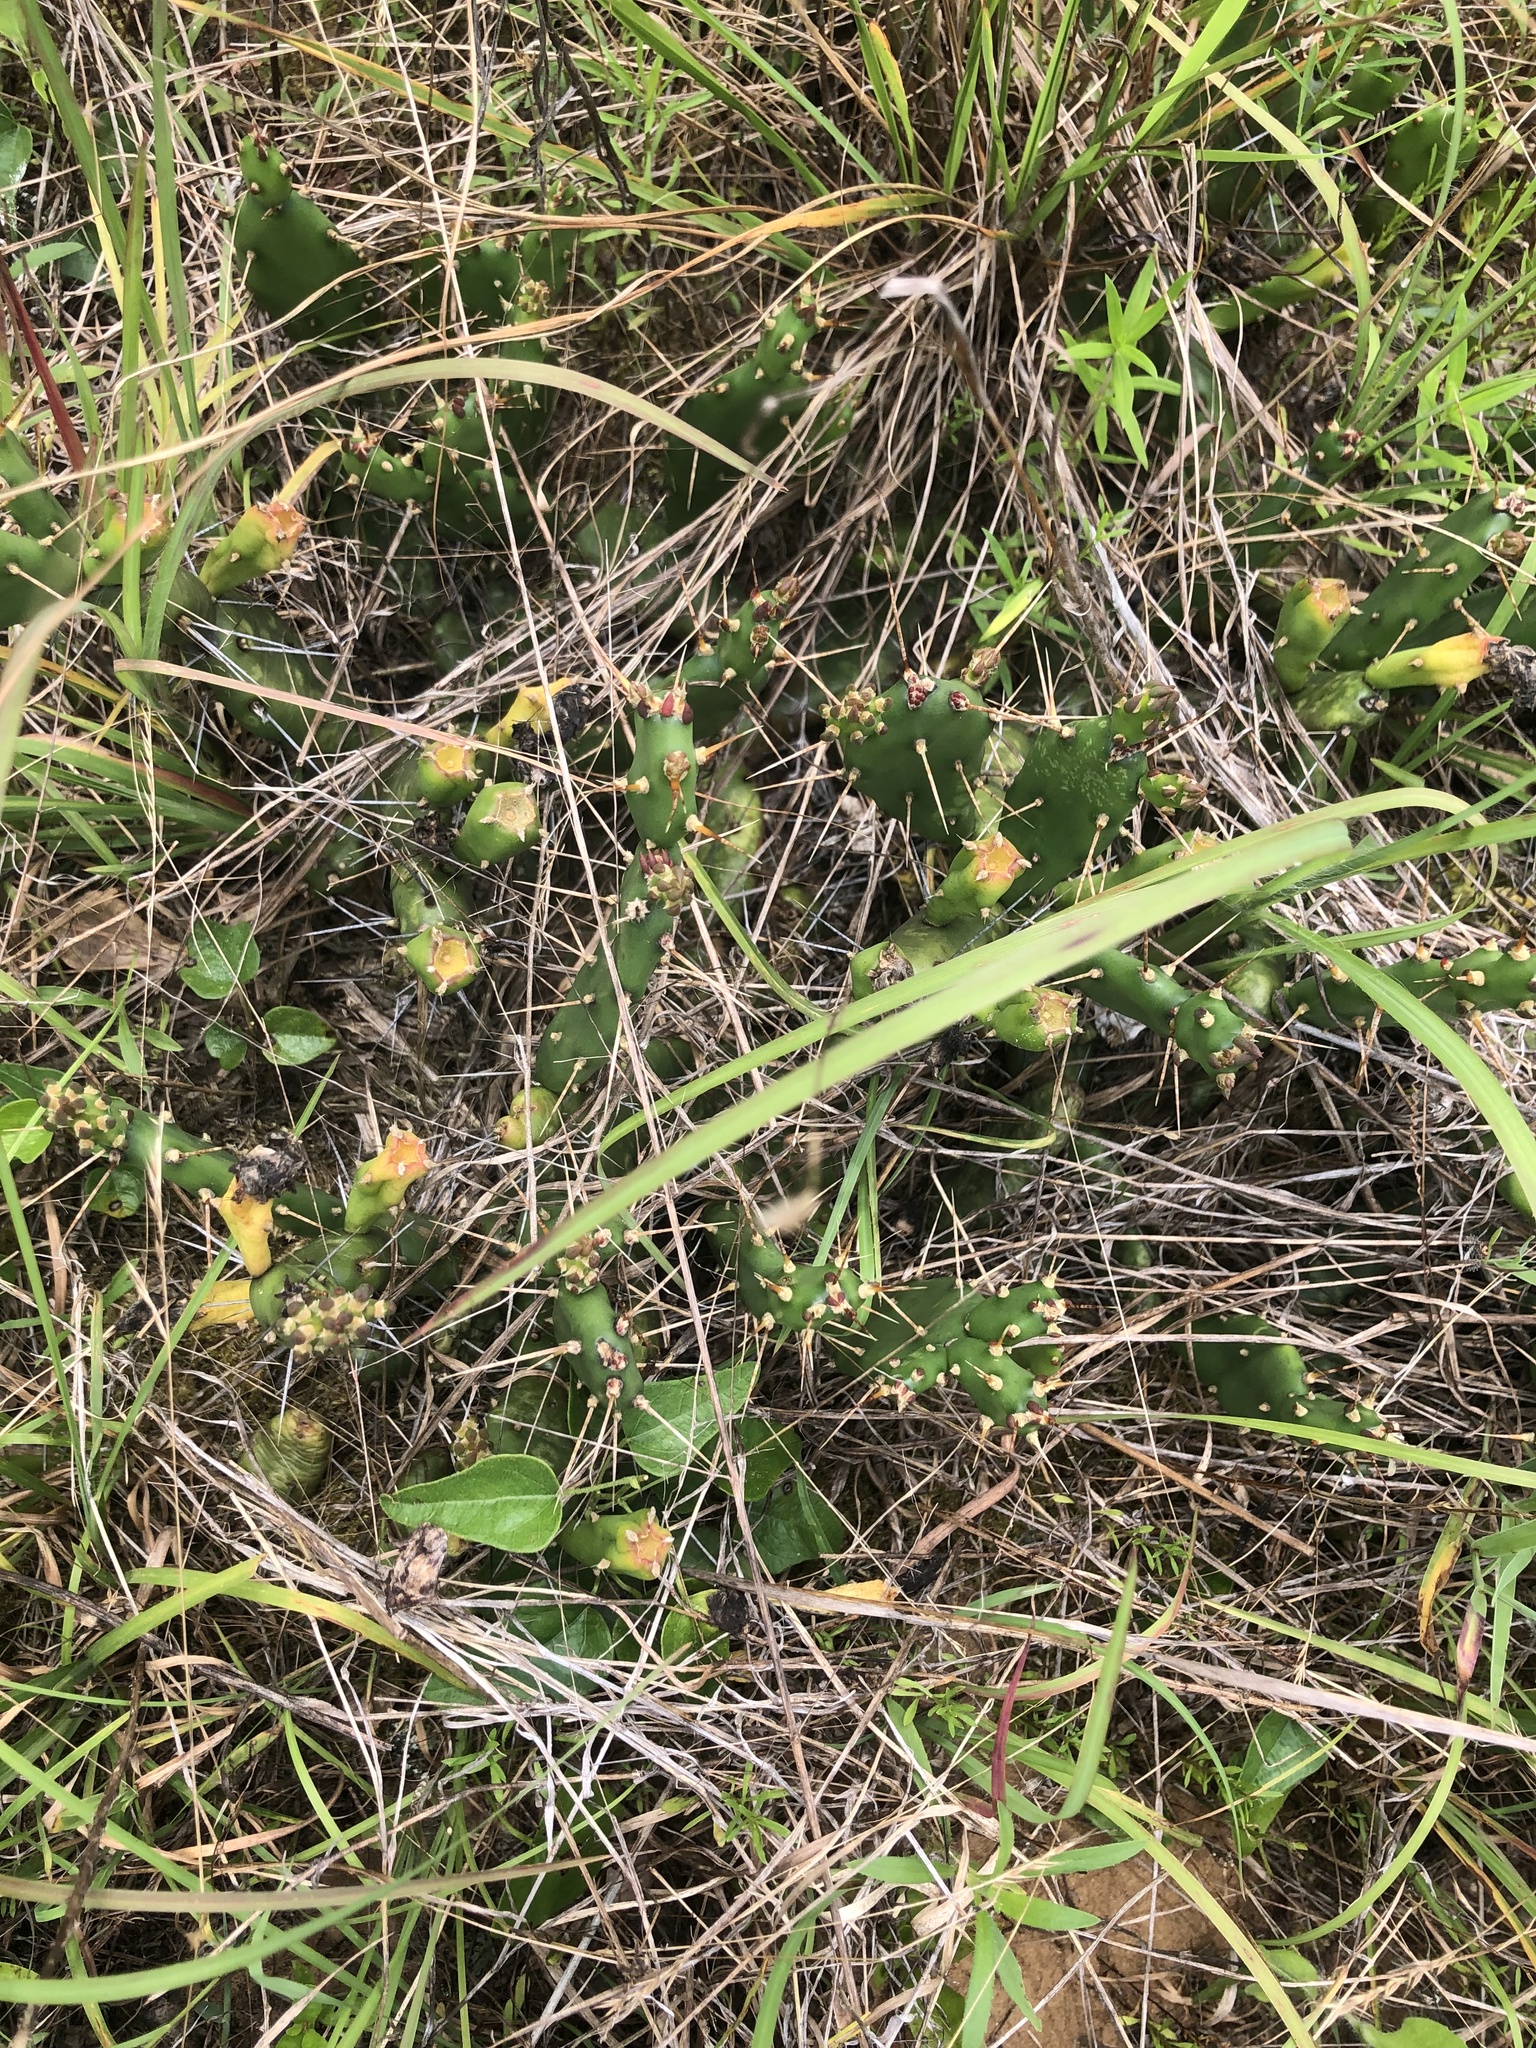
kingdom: Plantae
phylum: Tracheophyta
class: Magnoliopsida
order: Caryophyllales
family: Cactaceae
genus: Opuntia
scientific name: Opuntia drummondii
